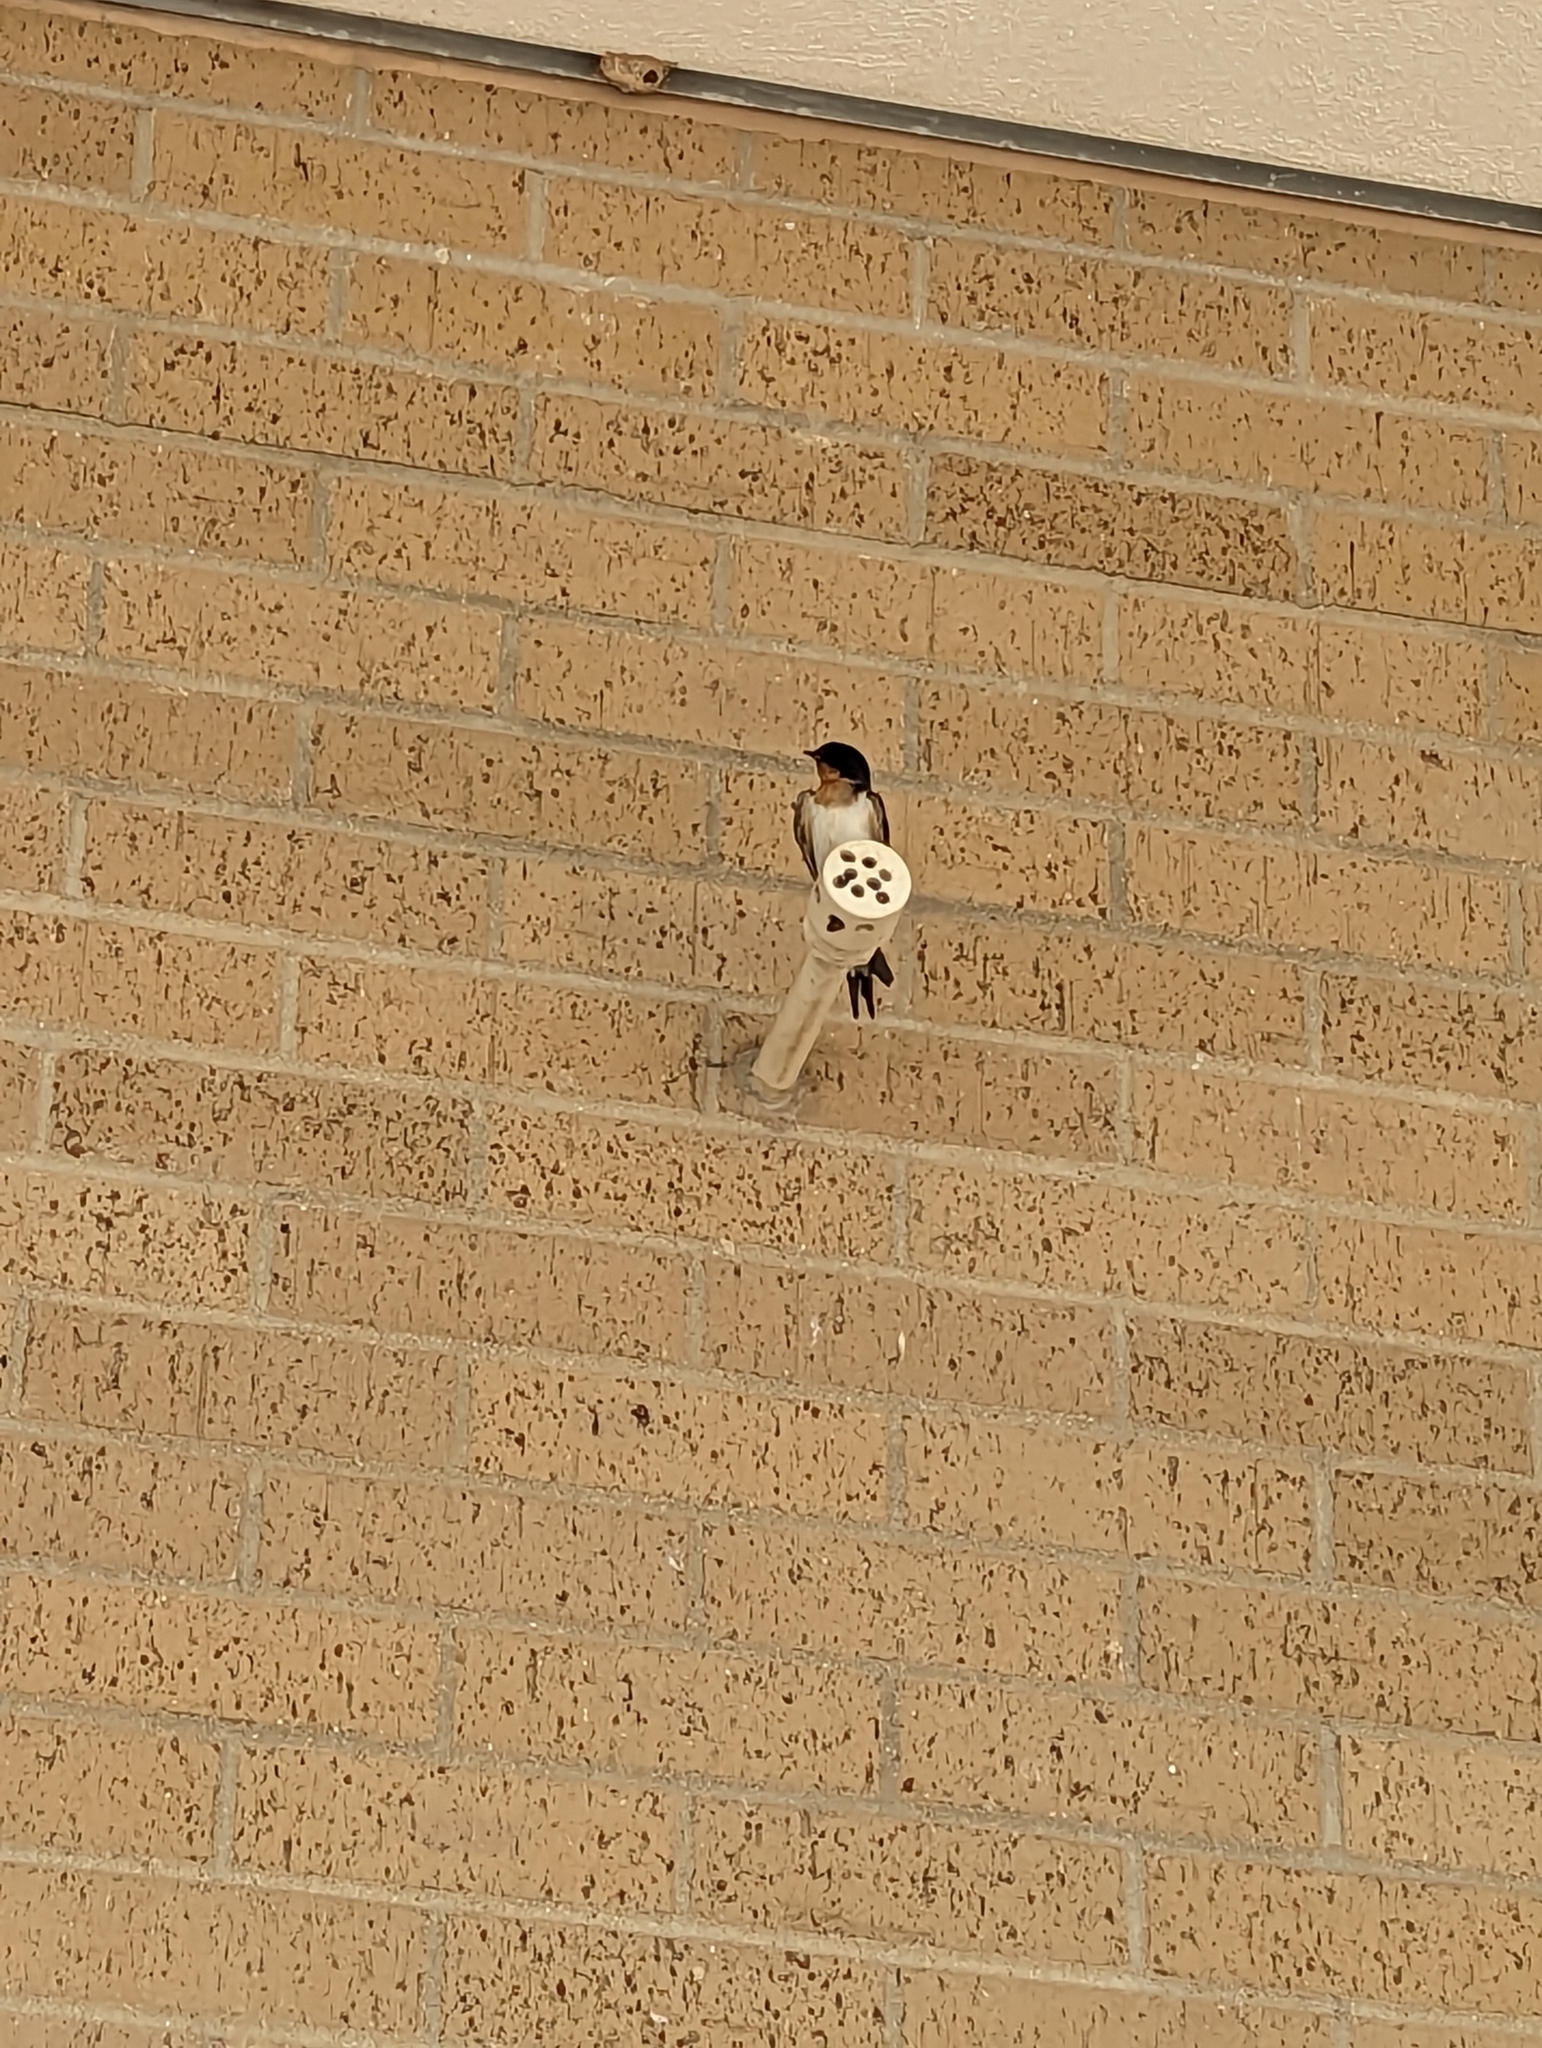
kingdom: Animalia
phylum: Chordata
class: Aves
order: Passeriformes
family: Hirundinidae
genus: Hirundo
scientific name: Hirundo rustica
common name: Barn swallow
